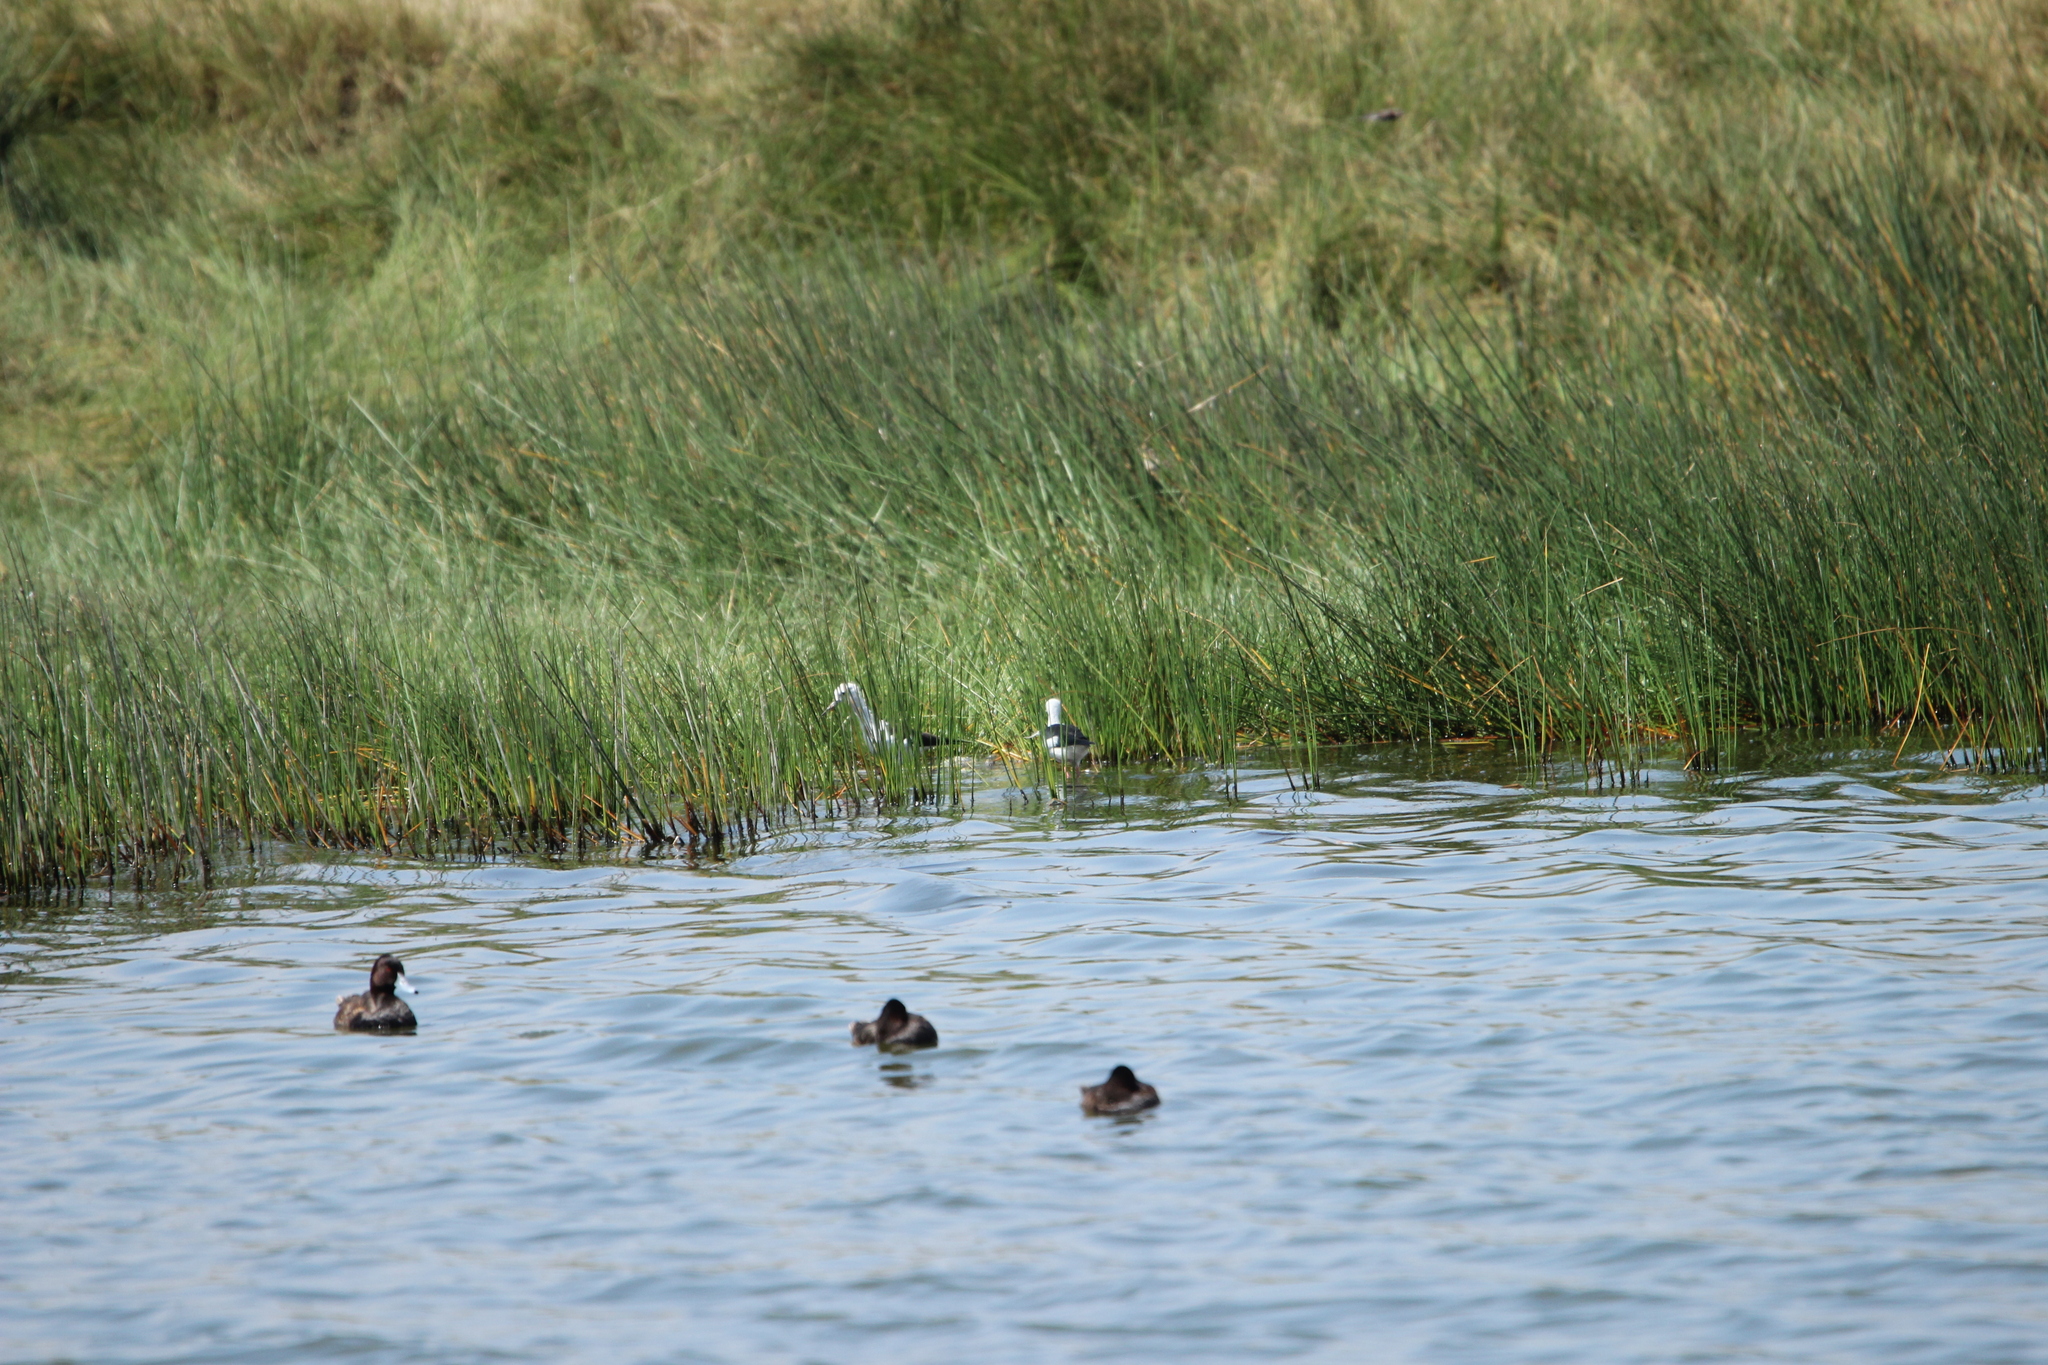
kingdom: Animalia
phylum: Chordata
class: Aves
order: Anseriformes
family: Anatidae
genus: Netta
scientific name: Netta erythrophthalma
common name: Southern pochard
